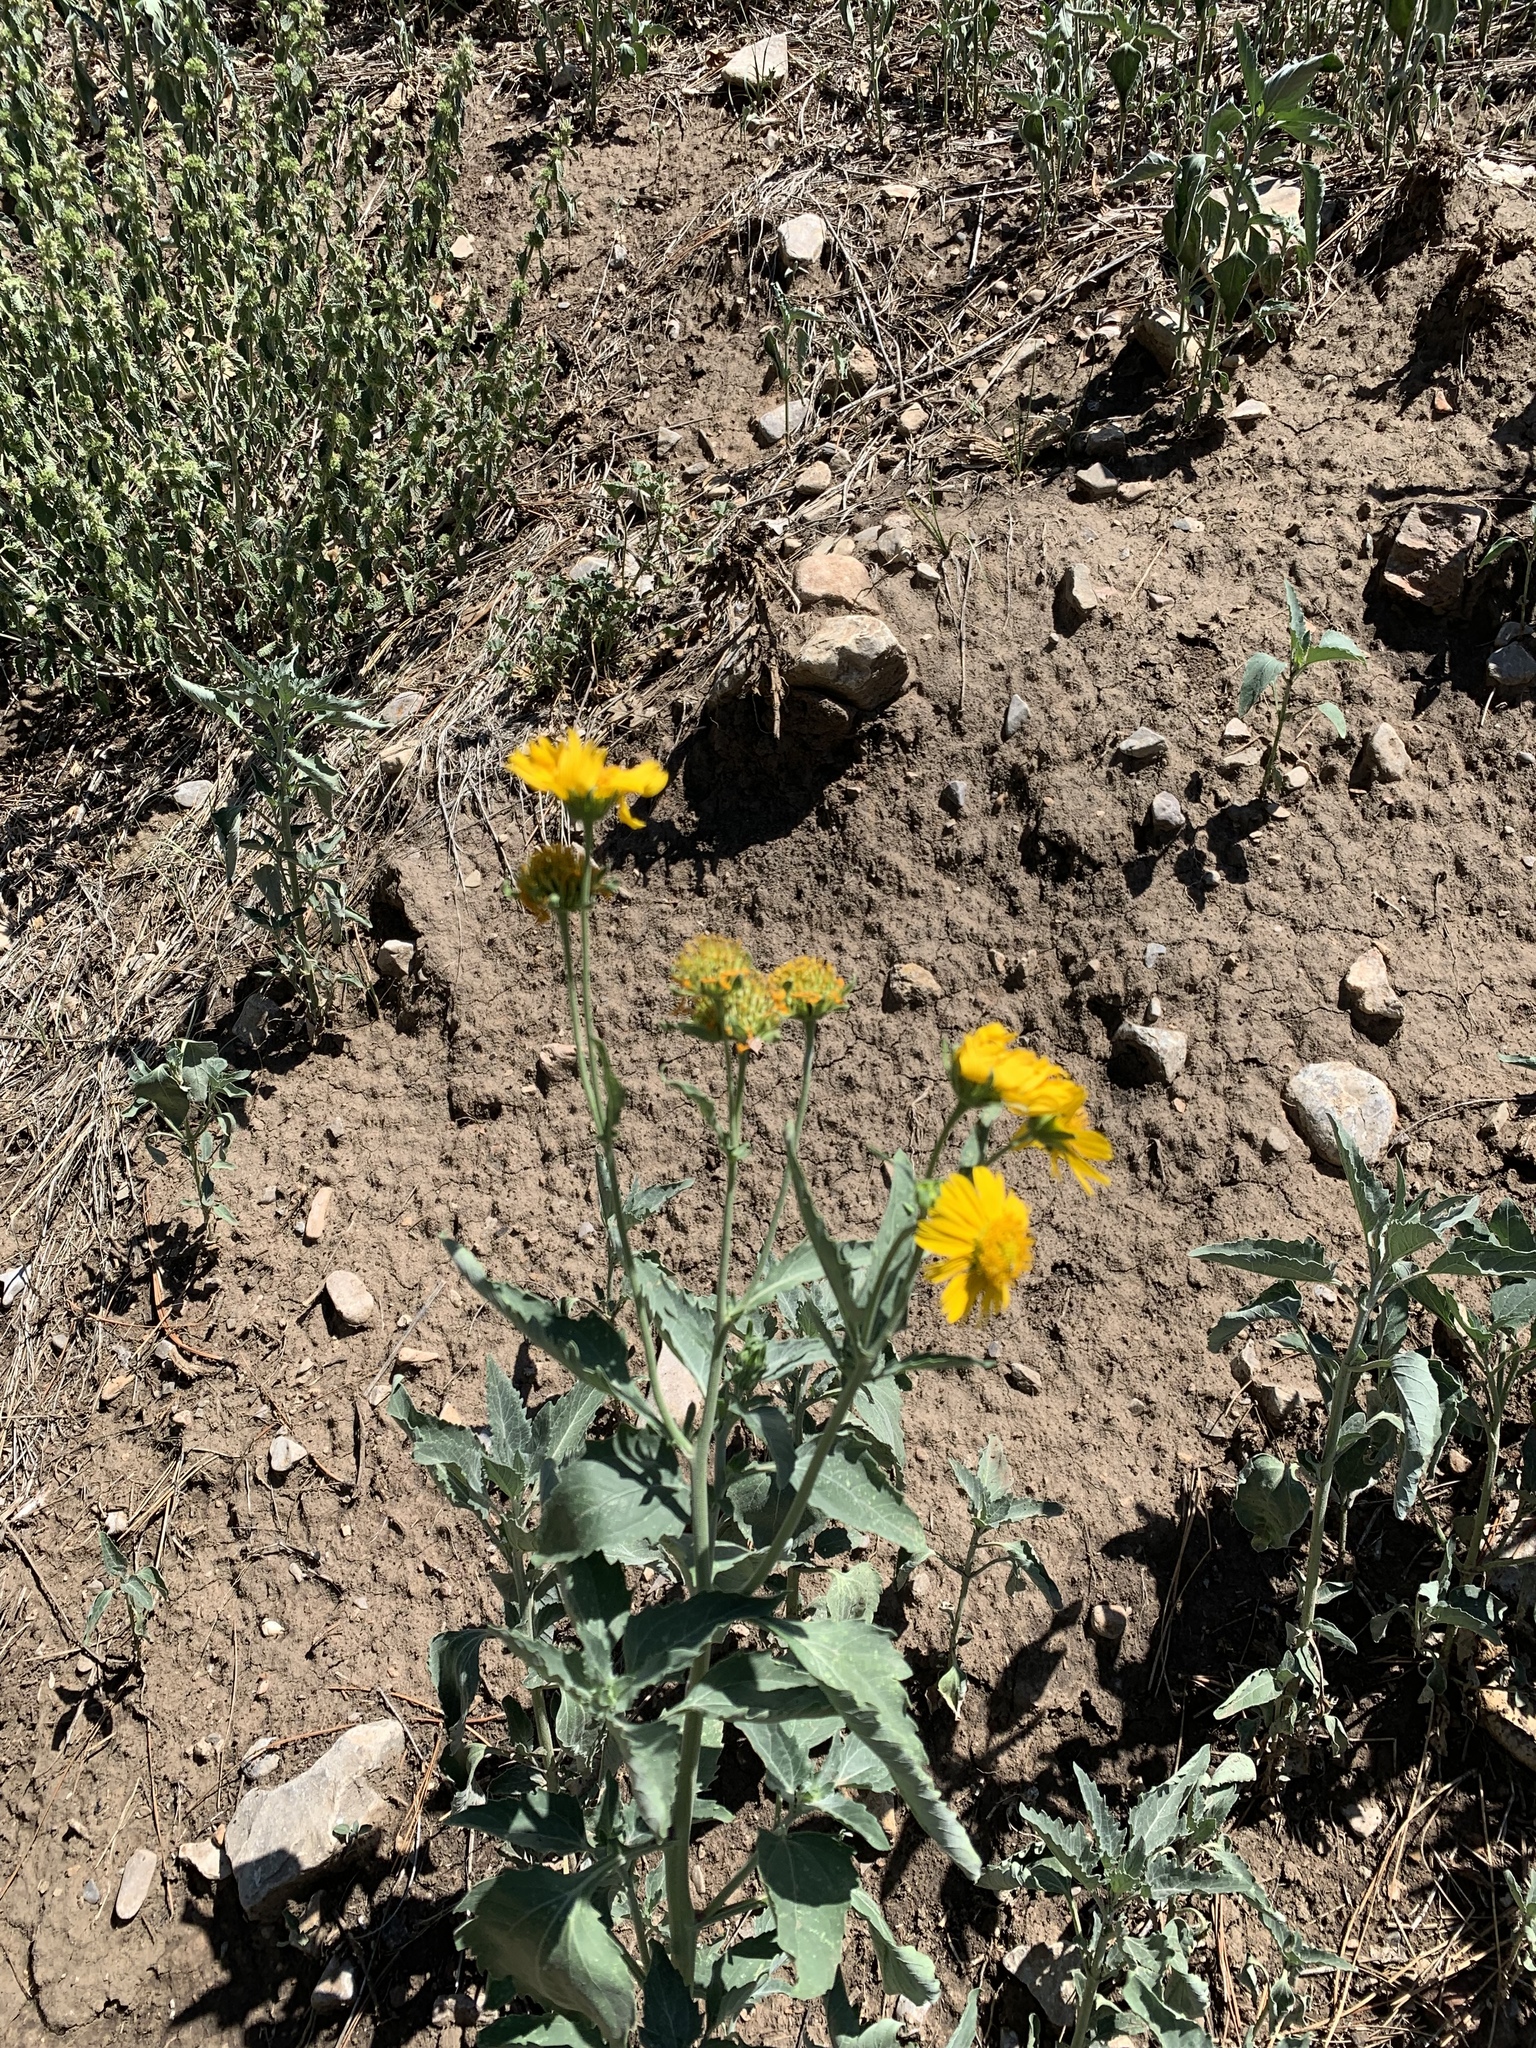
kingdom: Plantae
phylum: Tracheophyta
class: Magnoliopsida
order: Asterales
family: Asteraceae
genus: Verbesina
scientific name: Verbesina encelioides
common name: Golden crownbeard
